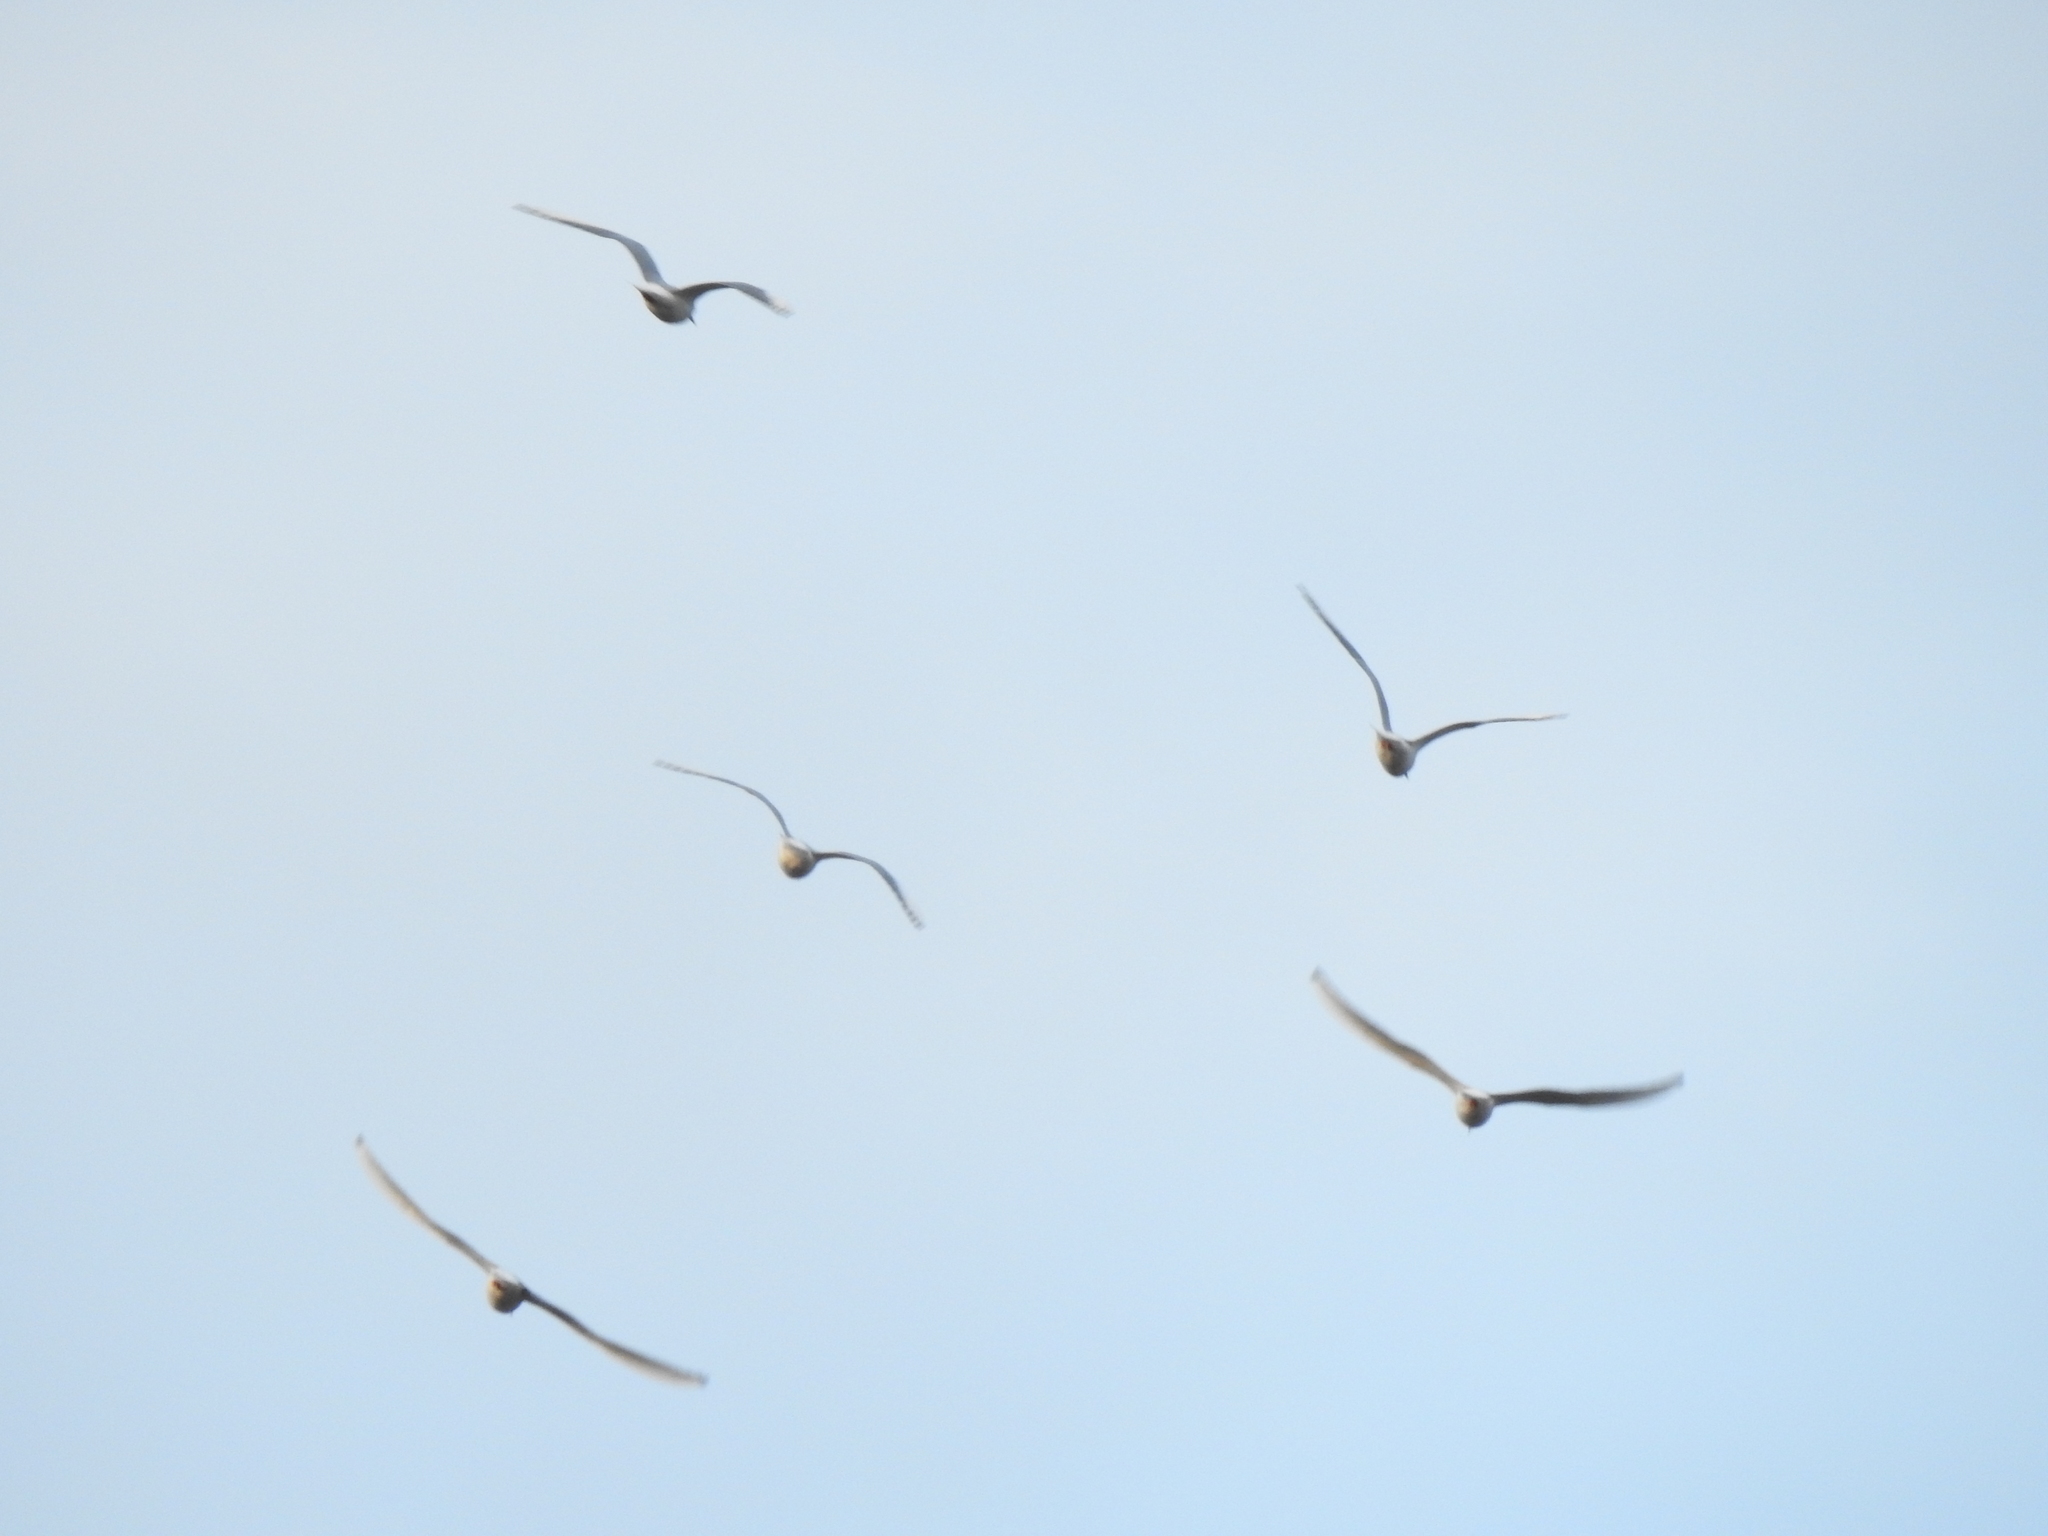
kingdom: Animalia
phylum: Chordata
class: Aves
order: Charadriiformes
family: Laridae
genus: Chroicocephalus
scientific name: Chroicocephalus philadelphia
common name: Bonaparte's gull
